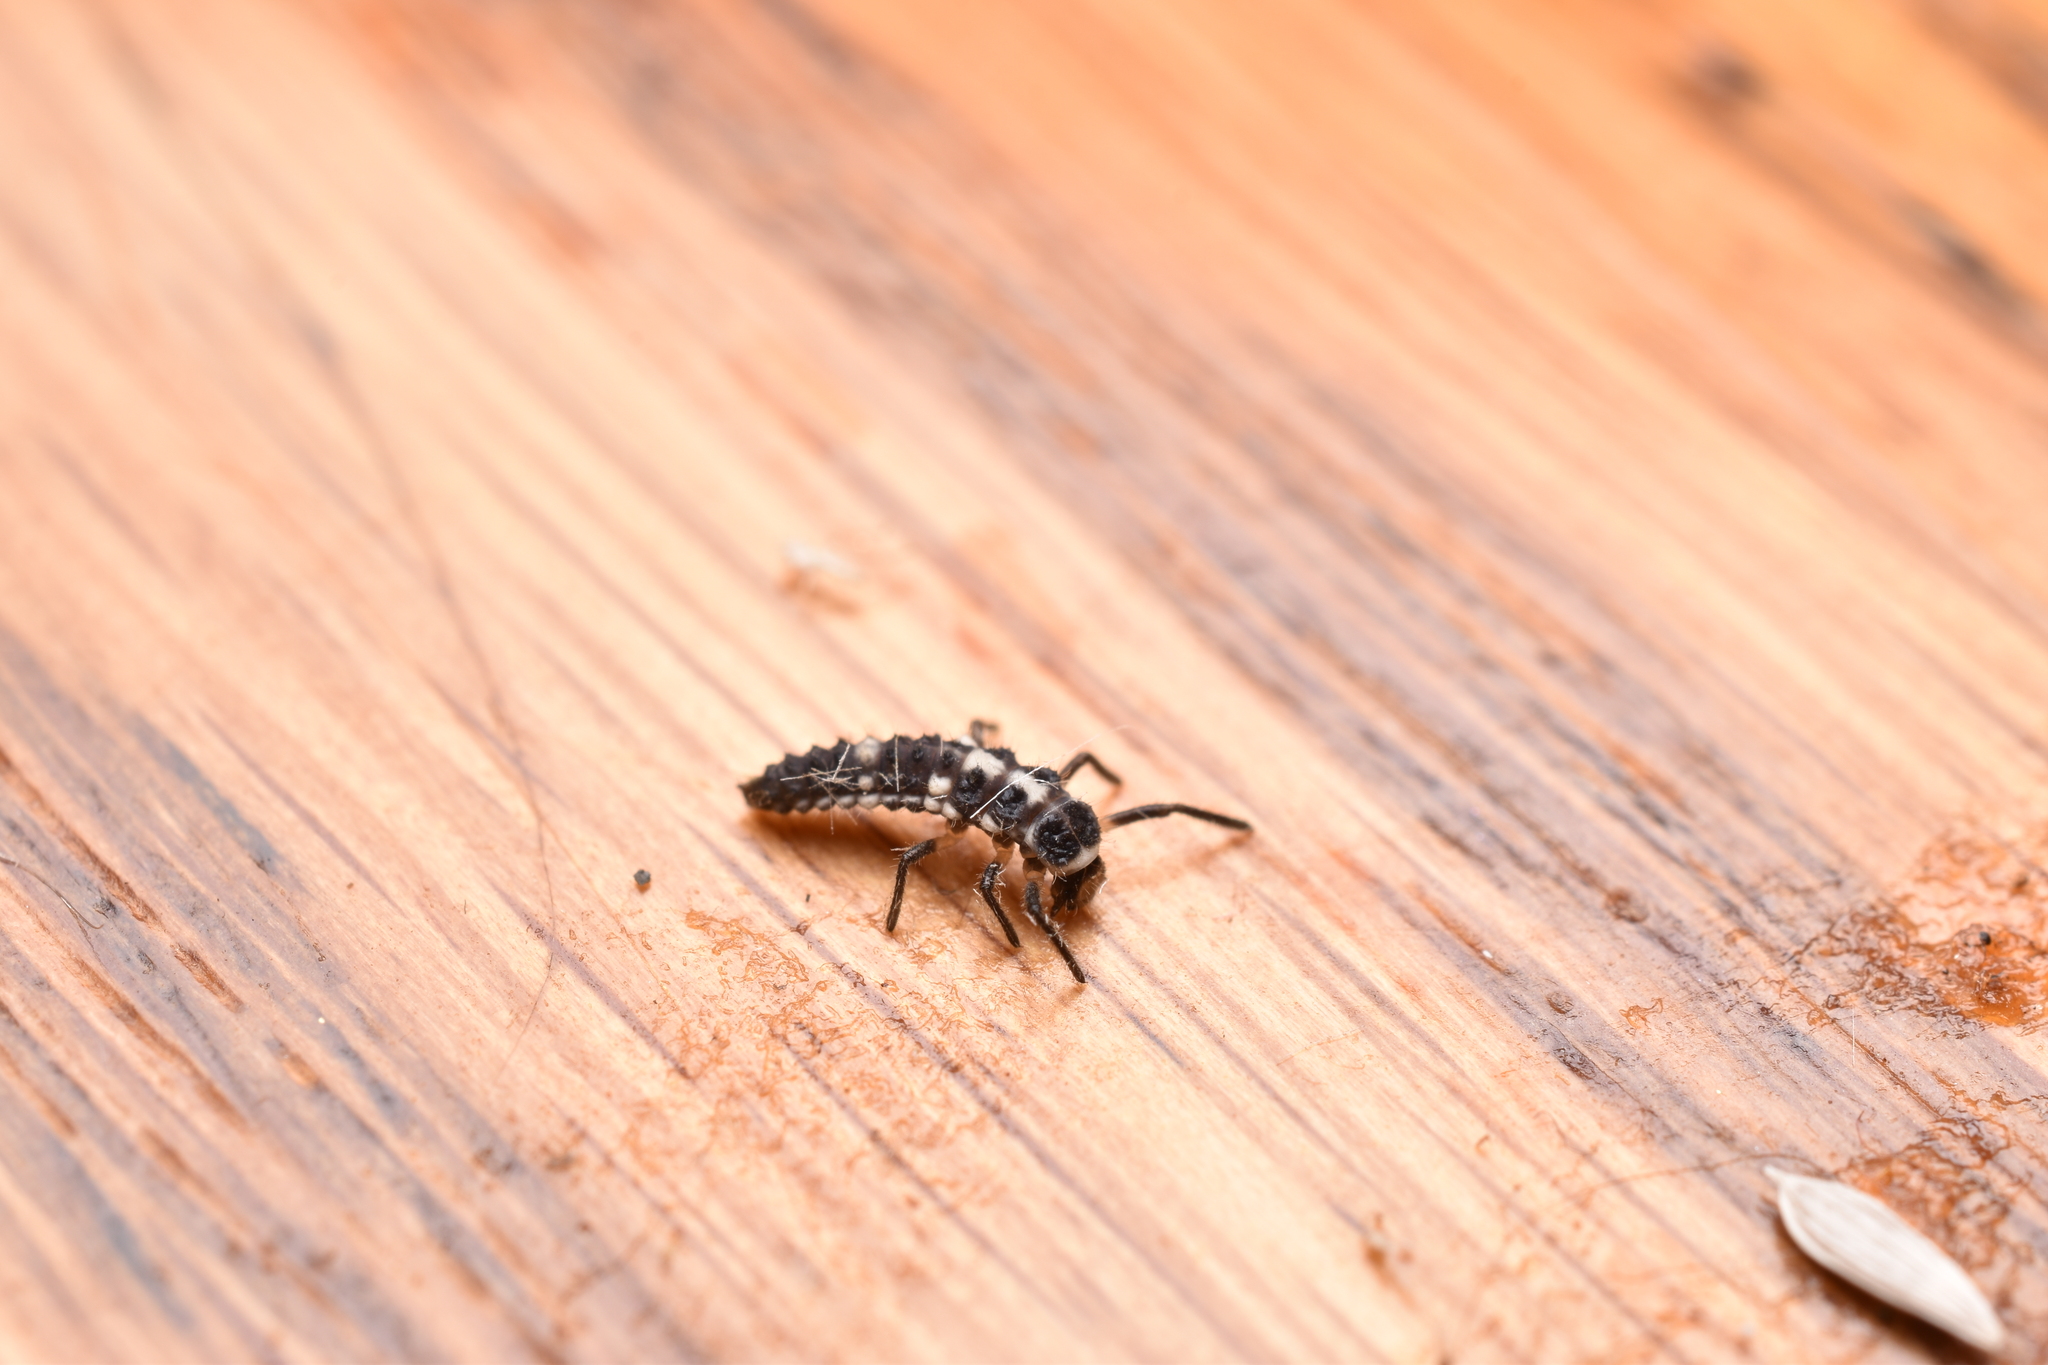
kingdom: Animalia
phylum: Arthropoda
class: Insecta
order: Coleoptera
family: Coccinellidae
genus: Propylaea
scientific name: Propylaea quatuordecimpunctata
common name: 14-spotted ladybird beetle
